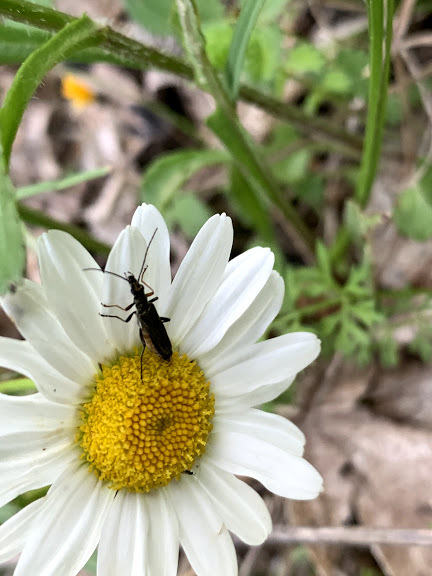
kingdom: Animalia
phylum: Arthropoda
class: Insecta
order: Coleoptera
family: Oedemeridae
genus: Oedemera
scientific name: Oedemera lurida
